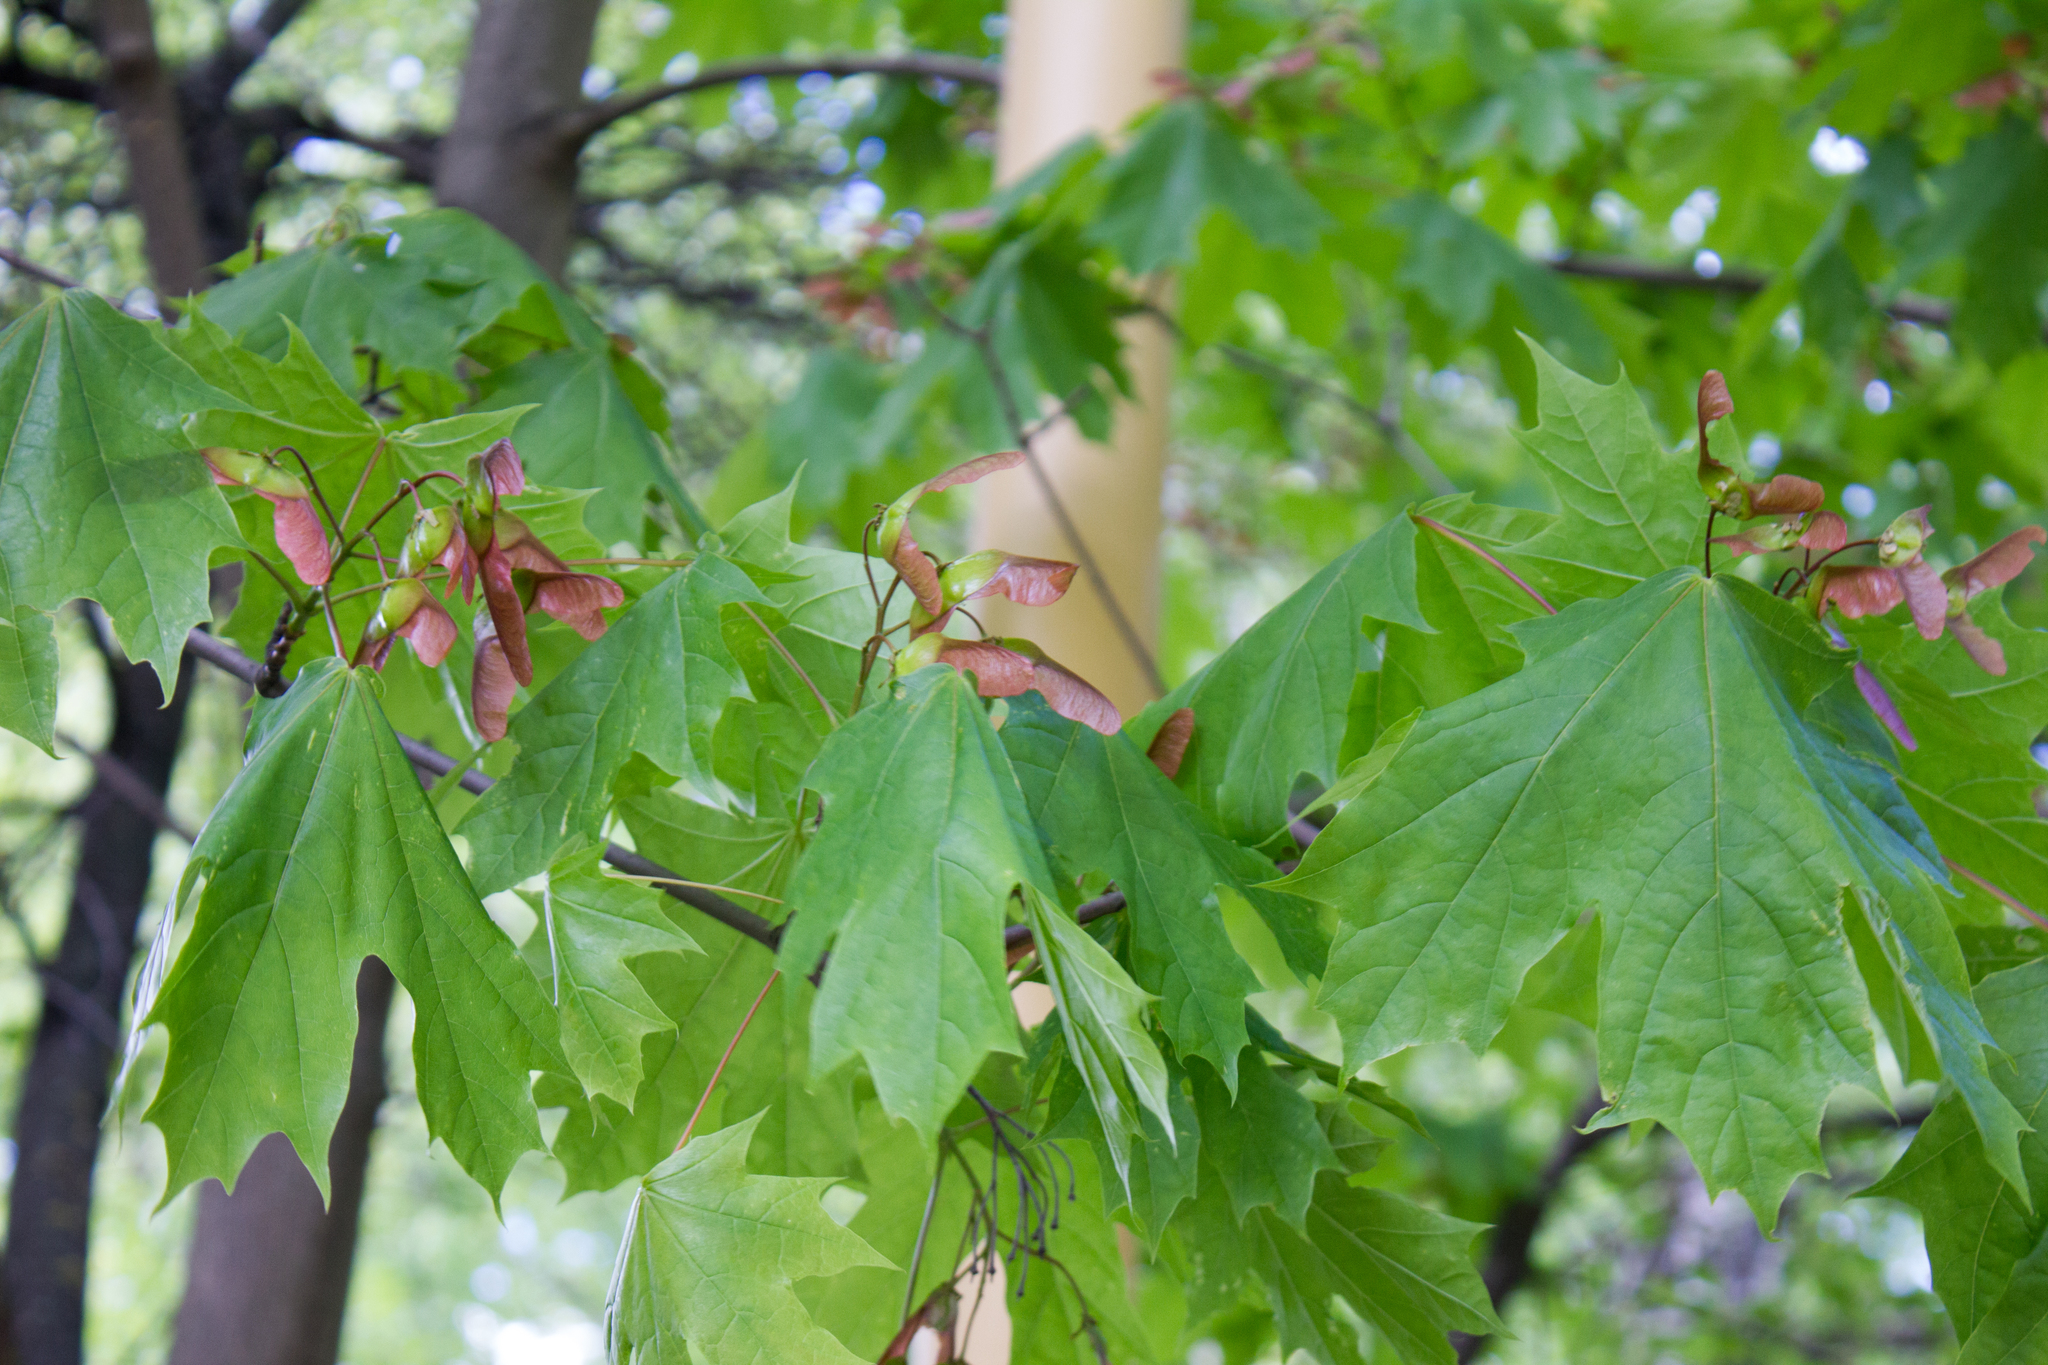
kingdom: Plantae
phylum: Tracheophyta
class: Magnoliopsida
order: Sapindales
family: Sapindaceae
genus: Acer
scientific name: Acer platanoides
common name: Norway maple
